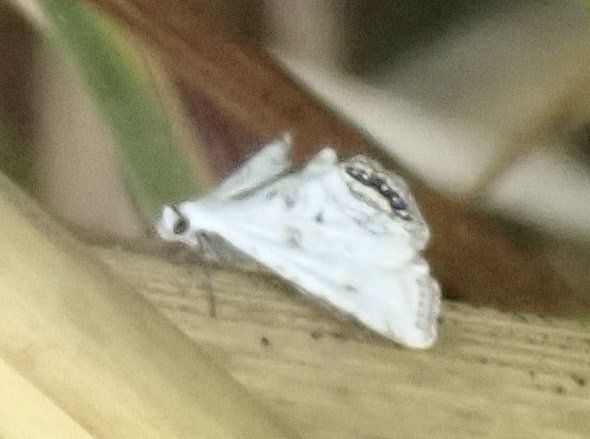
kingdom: Animalia
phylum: Arthropoda
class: Insecta
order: Lepidoptera
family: Crambidae
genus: Cataclysta
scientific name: Cataclysta lemnata
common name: Small china-mark
